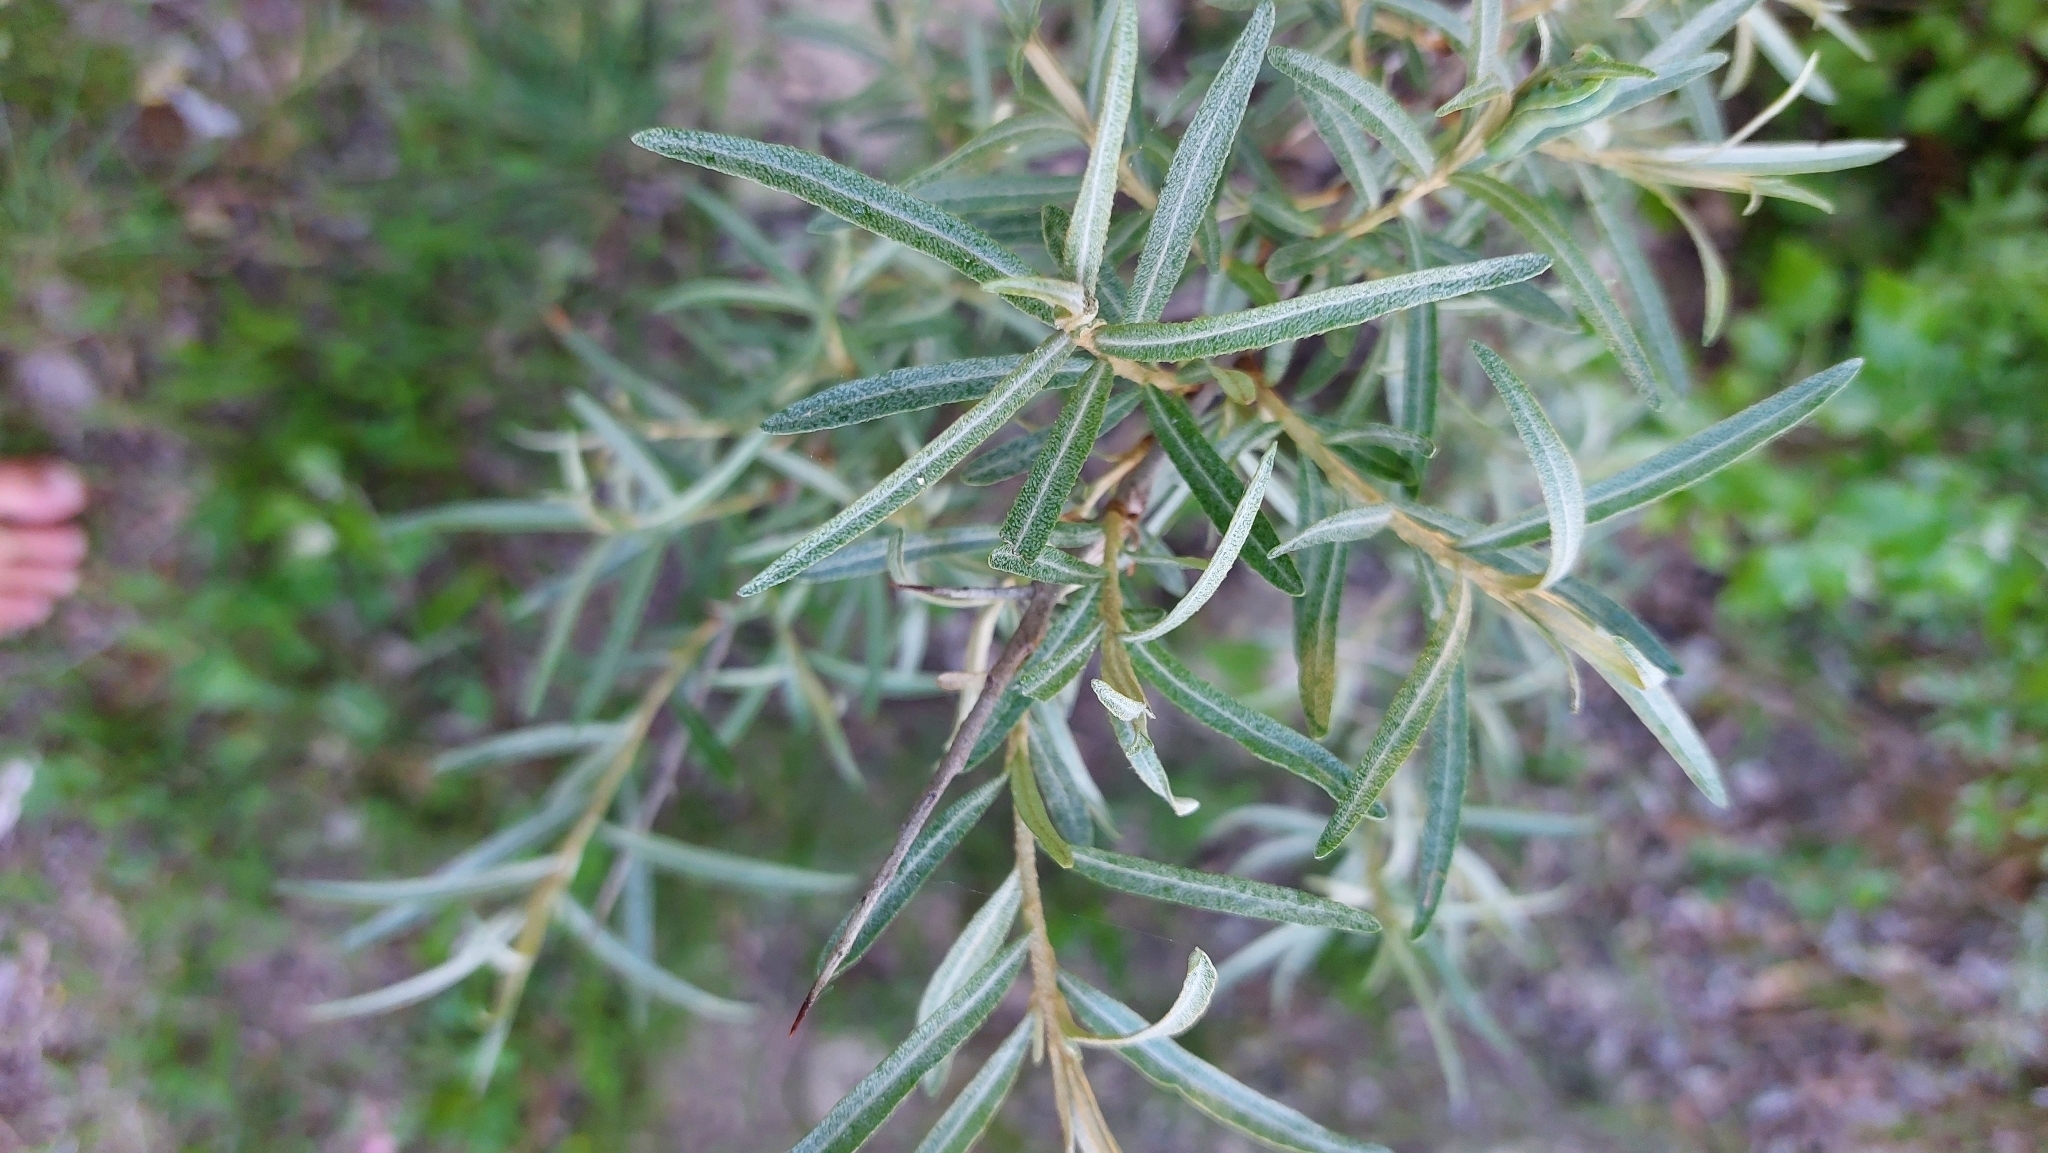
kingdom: Plantae
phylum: Tracheophyta
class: Magnoliopsida
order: Rosales
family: Elaeagnaceae
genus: Hippophae
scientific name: Hippophae rhamnoides
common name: Sea-buckthorn
